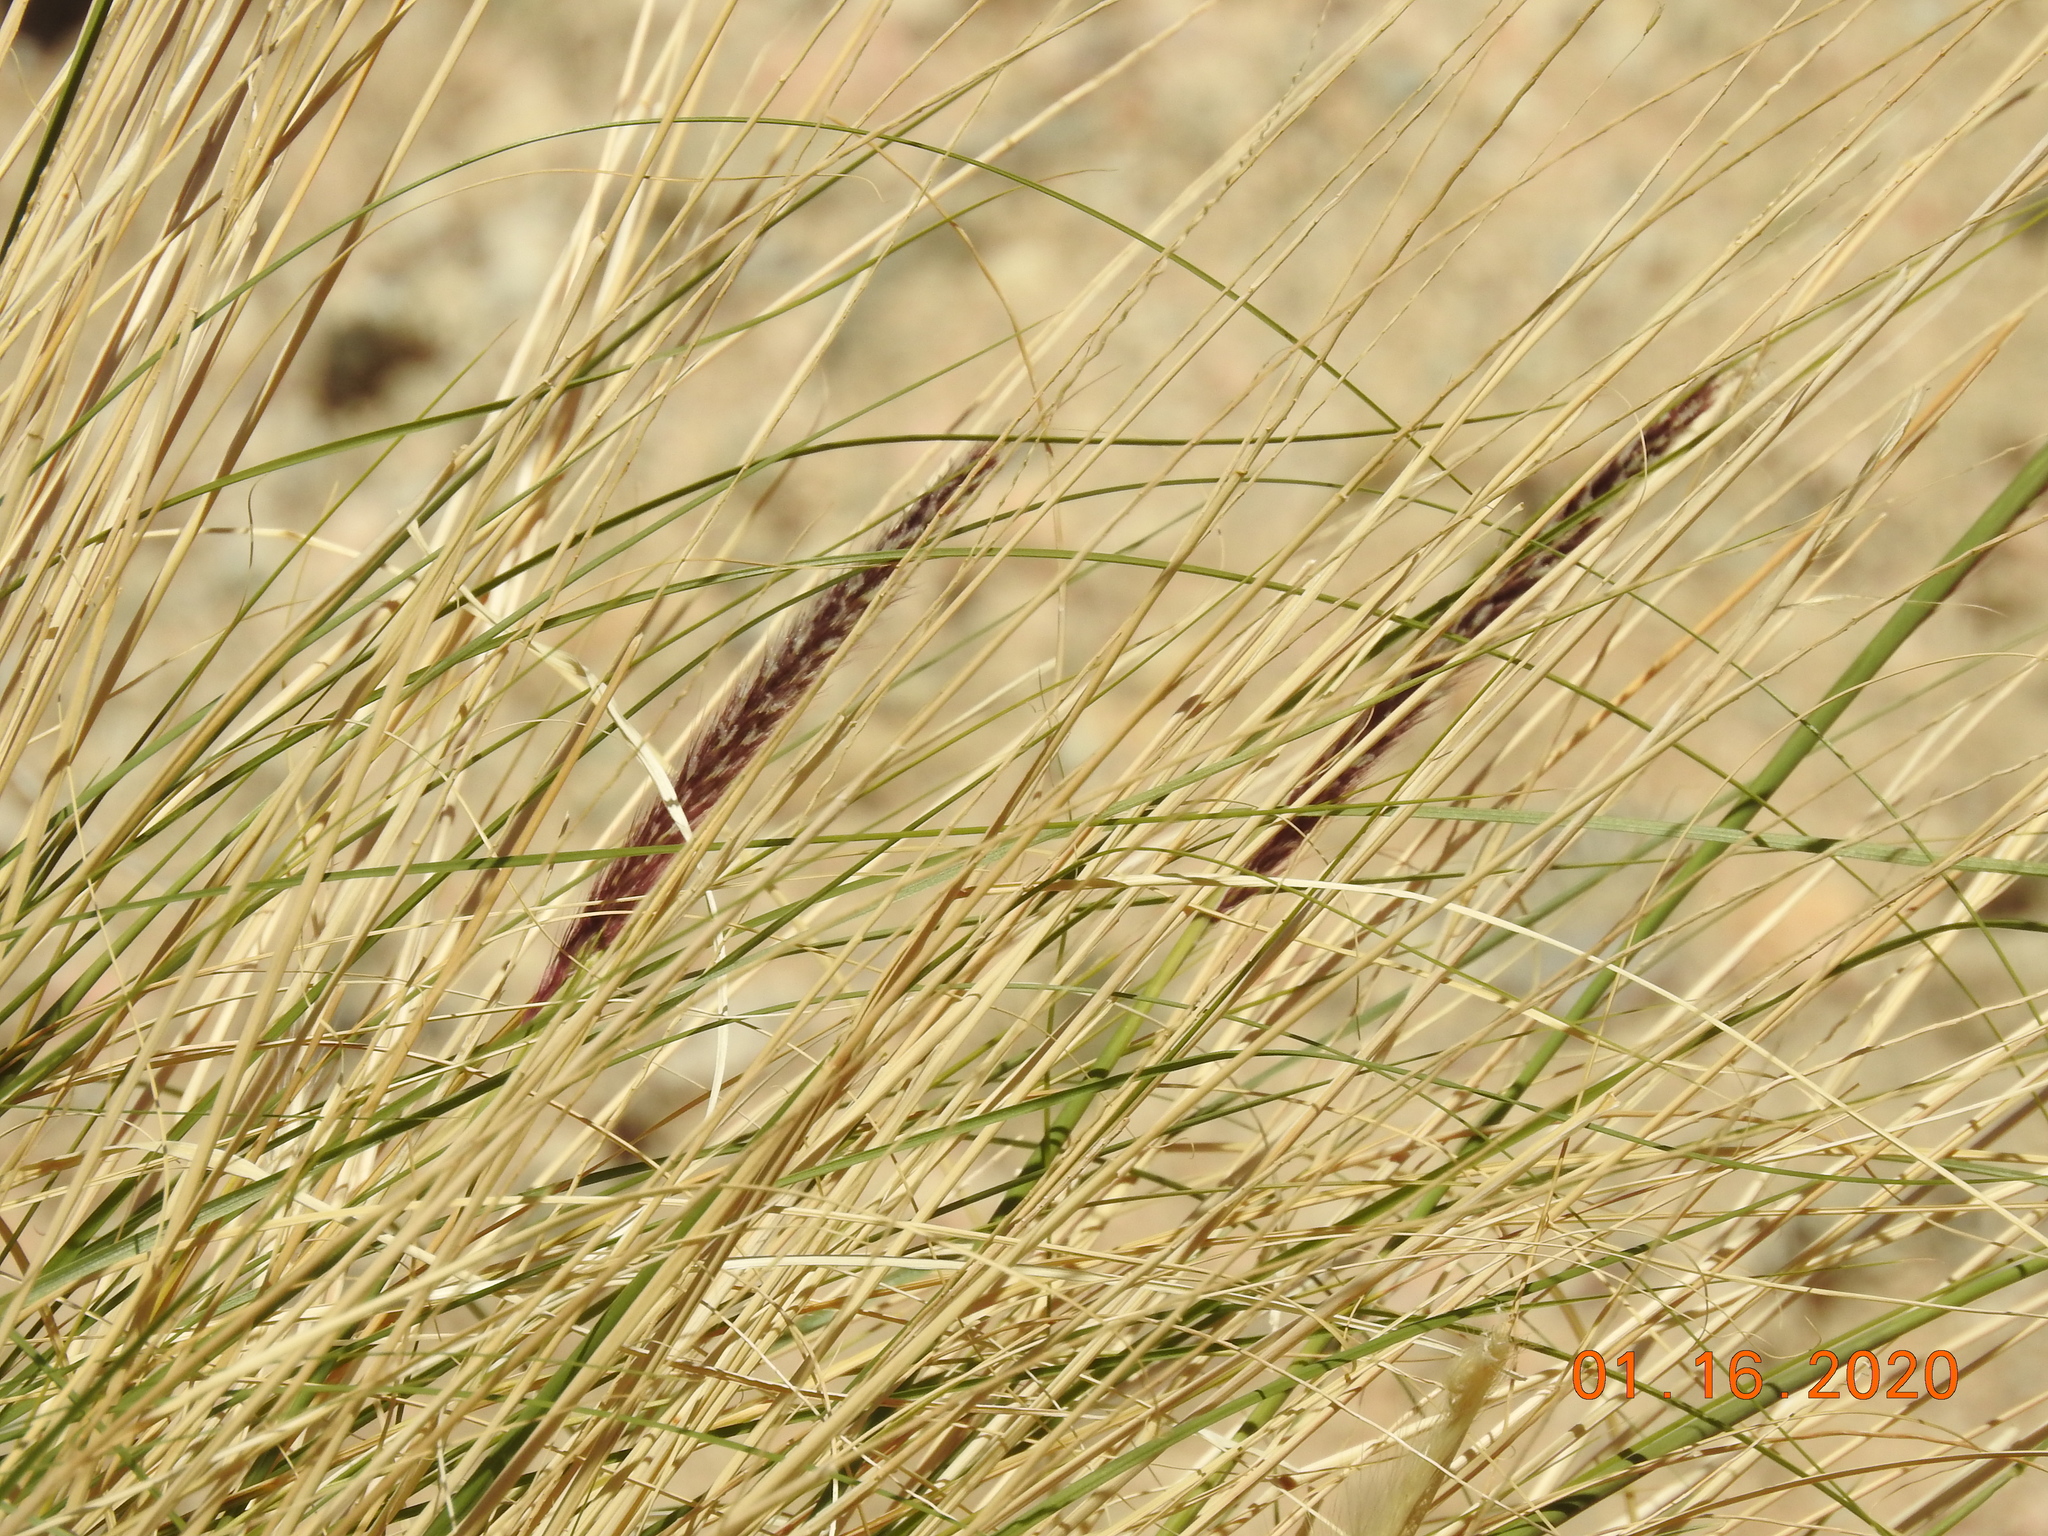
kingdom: Plantae
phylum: Tracheophyta
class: Liliopsida
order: Poales
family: Poaceae
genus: Cenchrus
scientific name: Cenchrus setaceus
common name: Crimson fountaingrass
